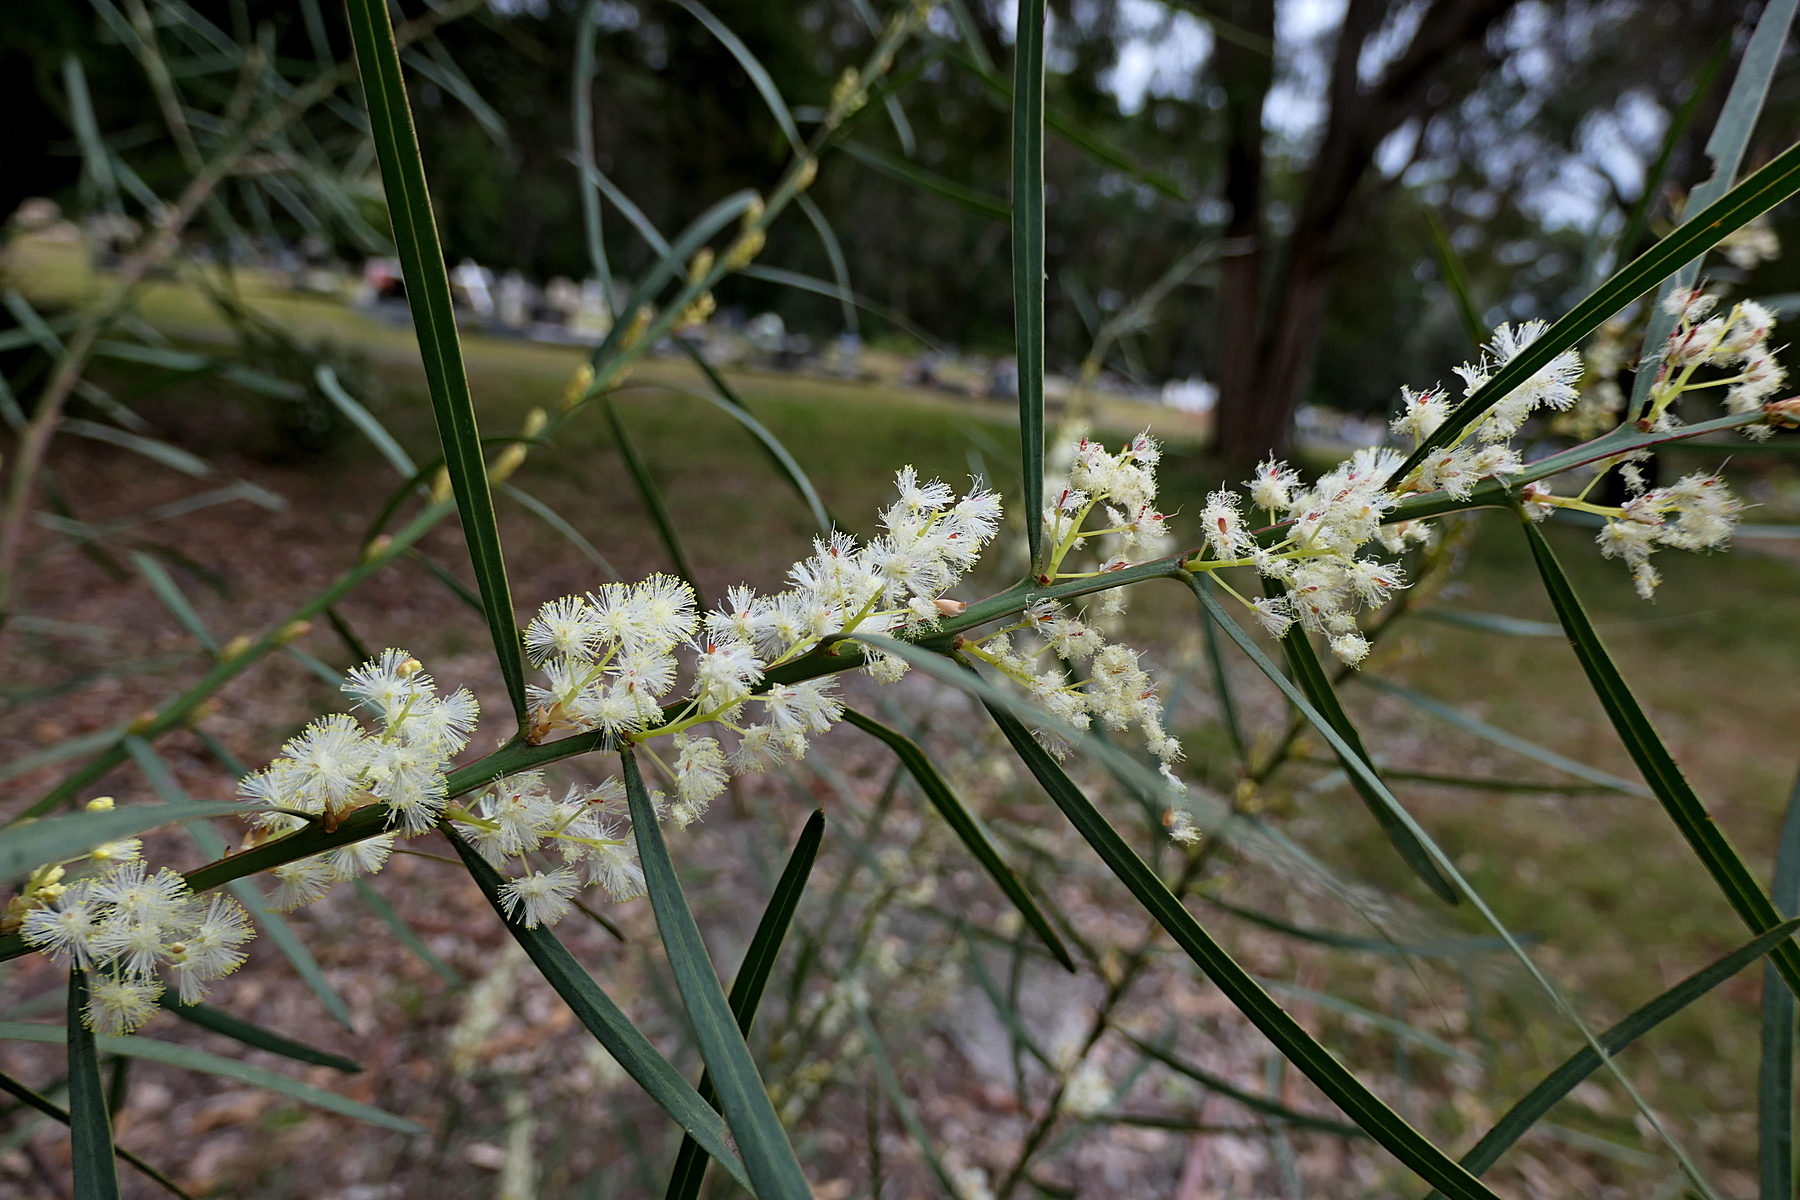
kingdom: Plantae
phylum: Tracheophyta
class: Magnoliopsida
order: Fabales
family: Fabaceae
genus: Acacia
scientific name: Acacia suaveolens
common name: Sweet acacia
